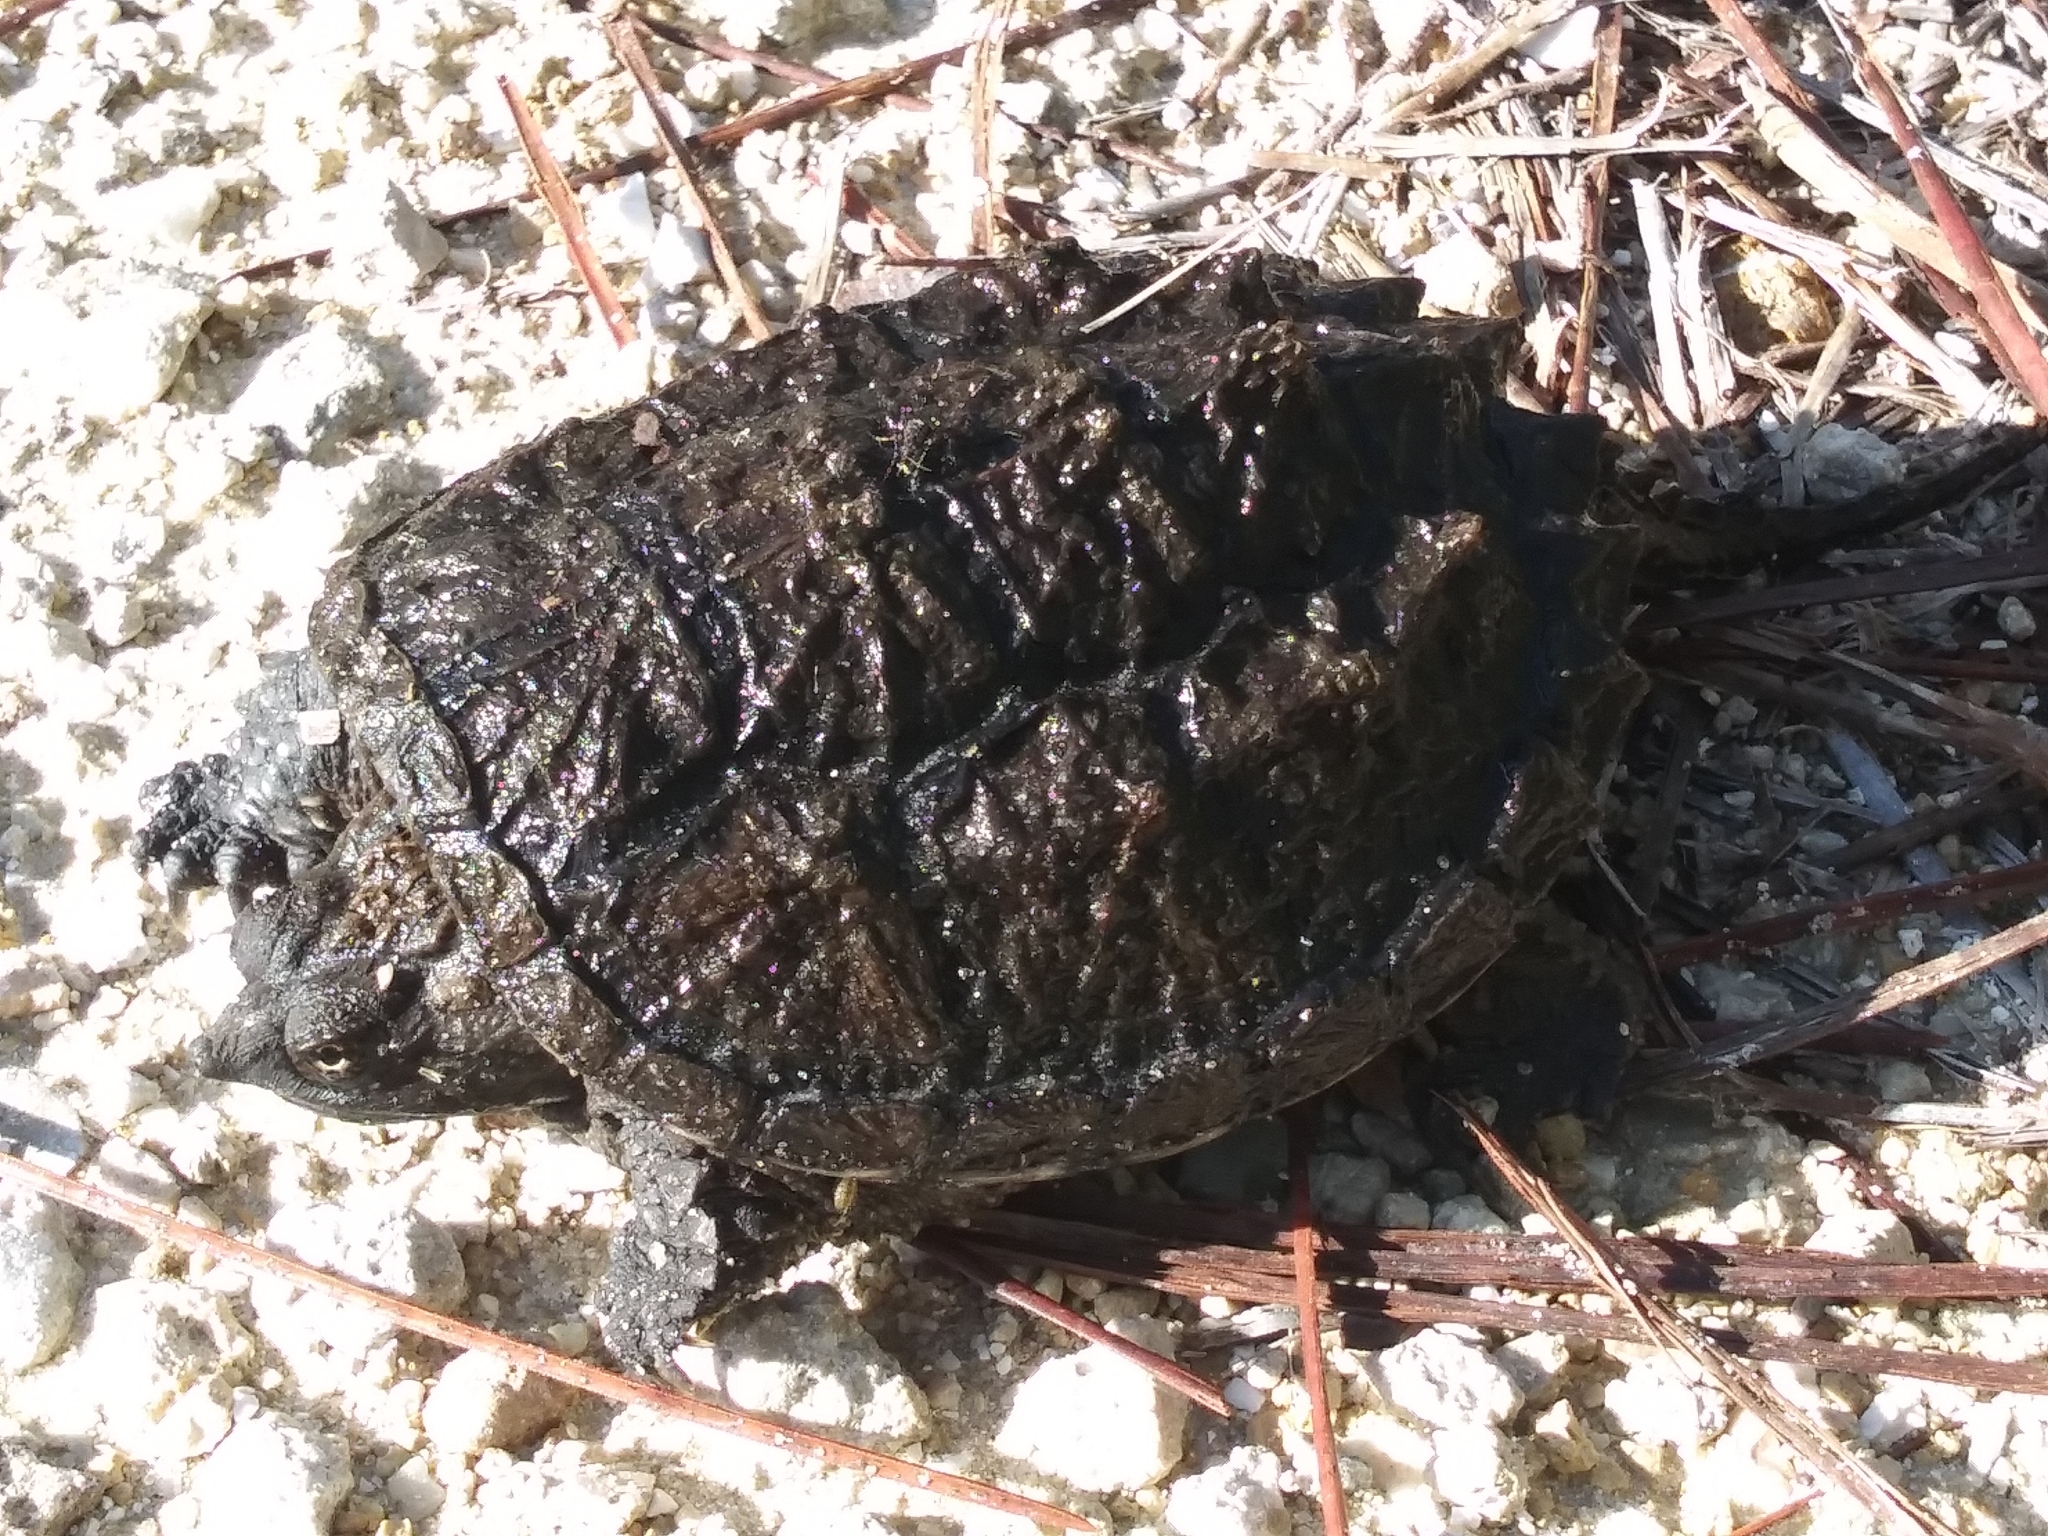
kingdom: Animalia
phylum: Chordata
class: Testudines
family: Chelydridae
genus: Chelydra
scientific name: Chelydra serpentina
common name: Common snapping turtle
